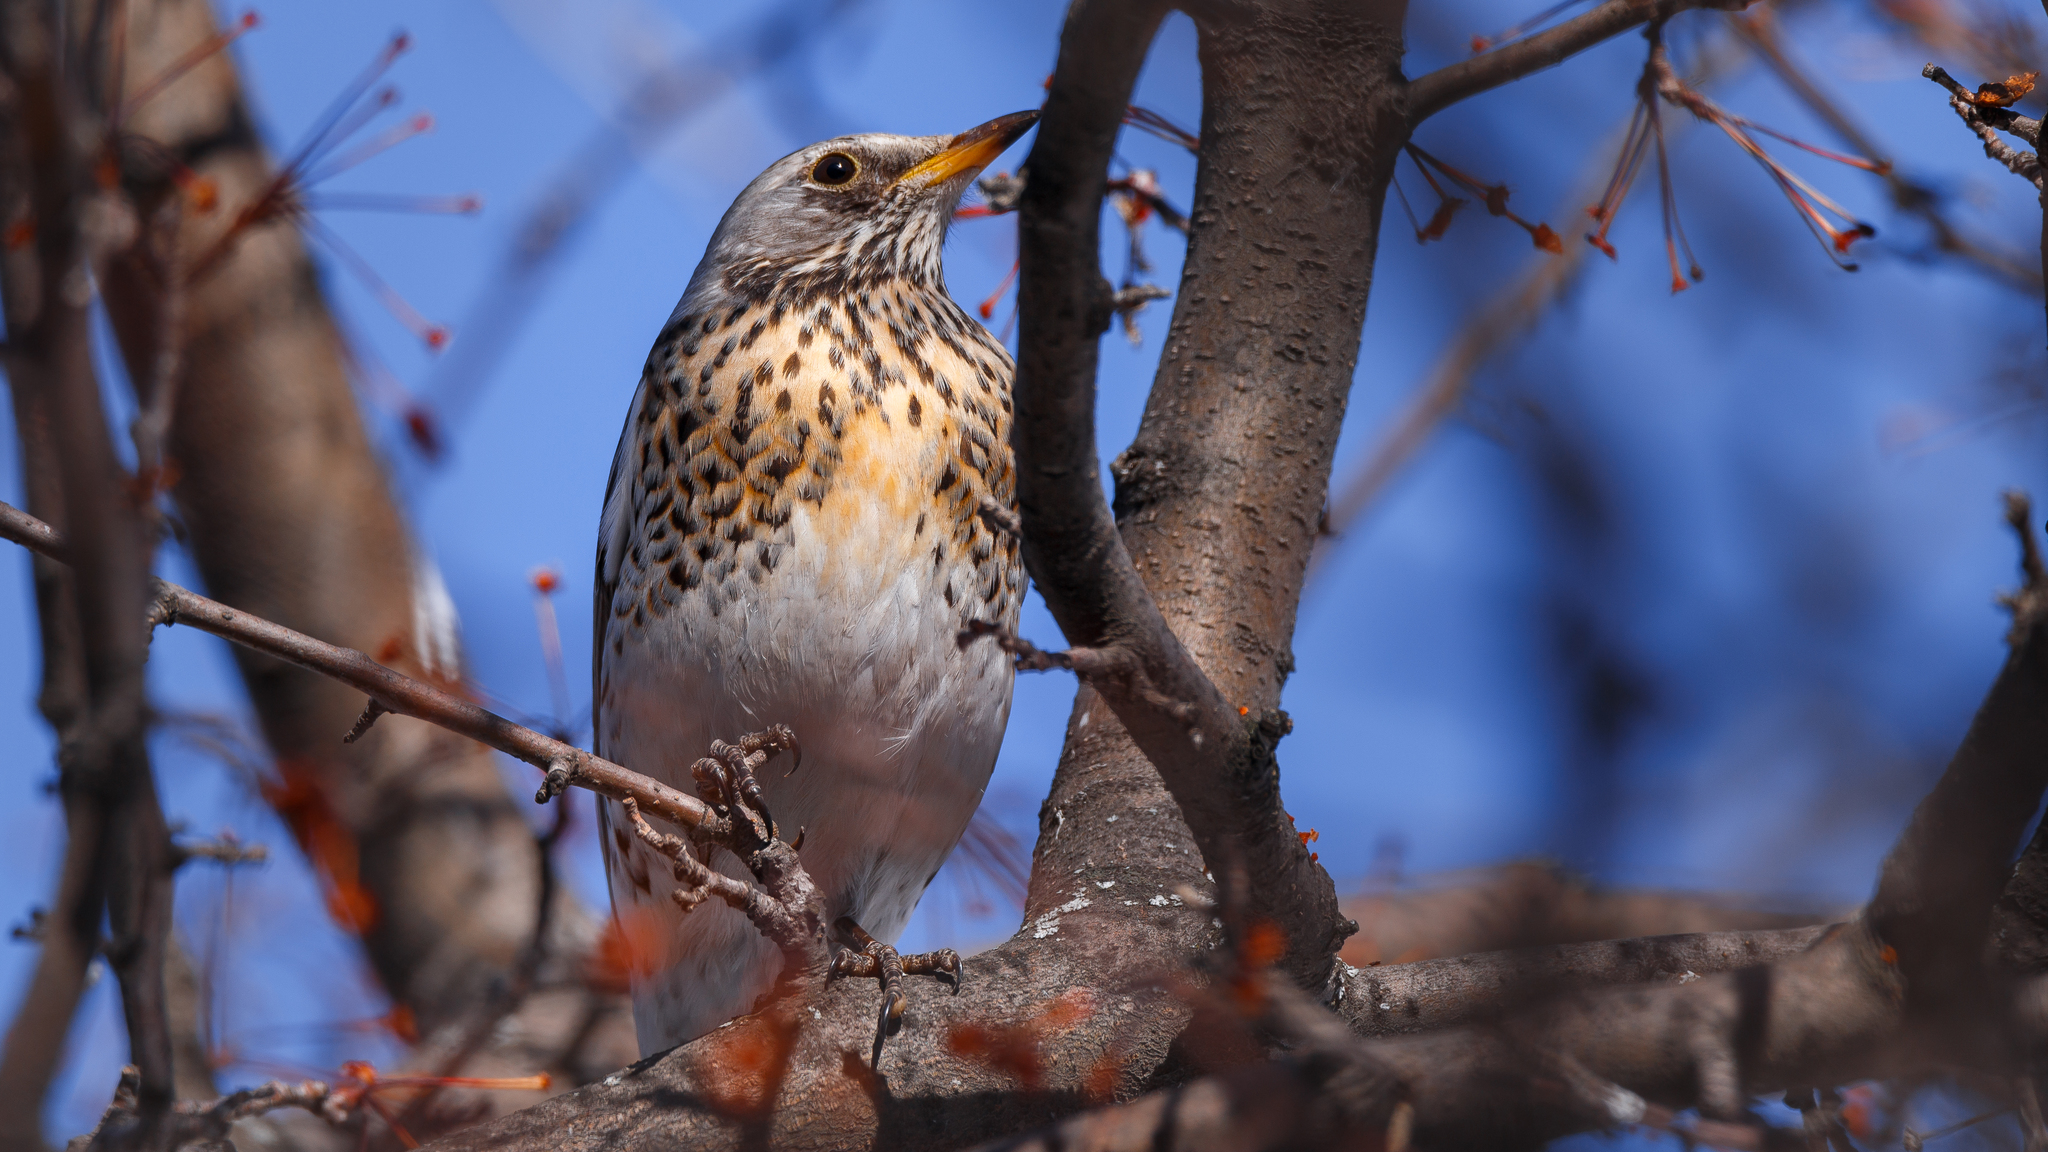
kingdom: Animalia
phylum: Chordata
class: Aves
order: Passeriformes
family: Turdidae
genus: Turdus
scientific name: Turdus pilaris
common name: Fieldfare
